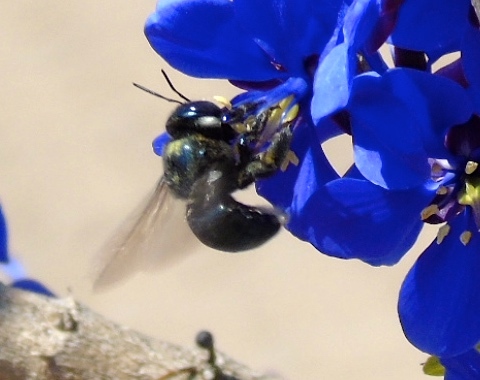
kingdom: Animalia
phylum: Arthropoda
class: Insecta
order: Hymenoptera
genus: Schonnherria
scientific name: Schonnherria
